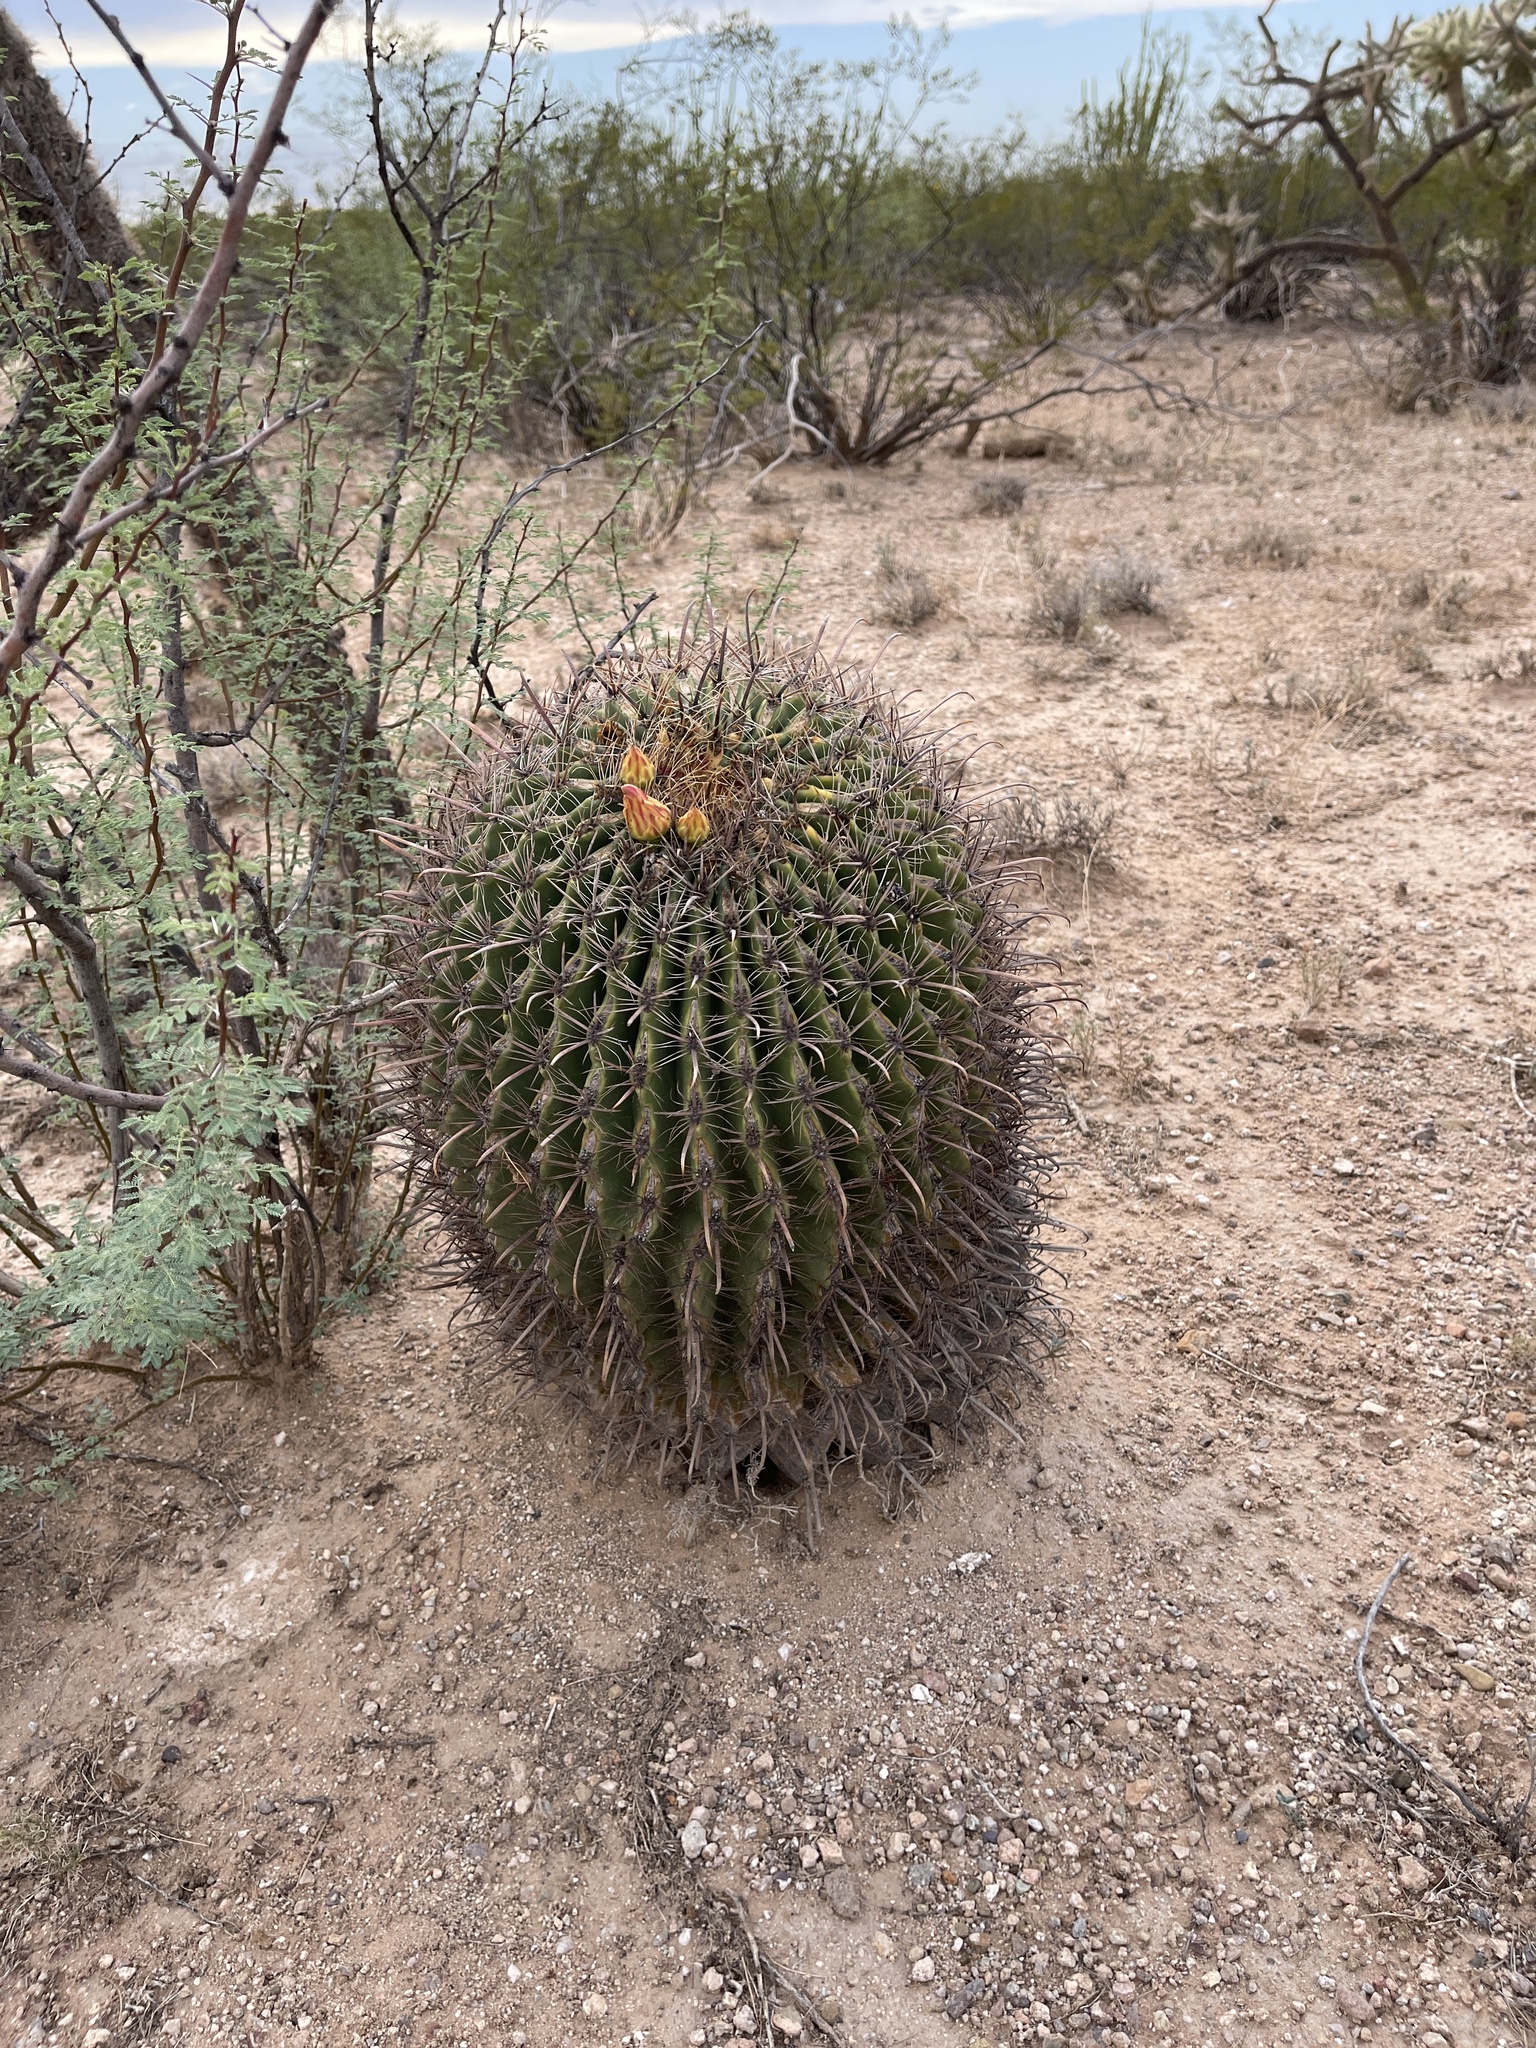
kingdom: Plantae
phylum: Tracheophyta
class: Magnoliopsida
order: Caryophyllales
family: Cactaceae
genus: Ferocactus
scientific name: Ferocactus wislizeni
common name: Candy barrel cactus
